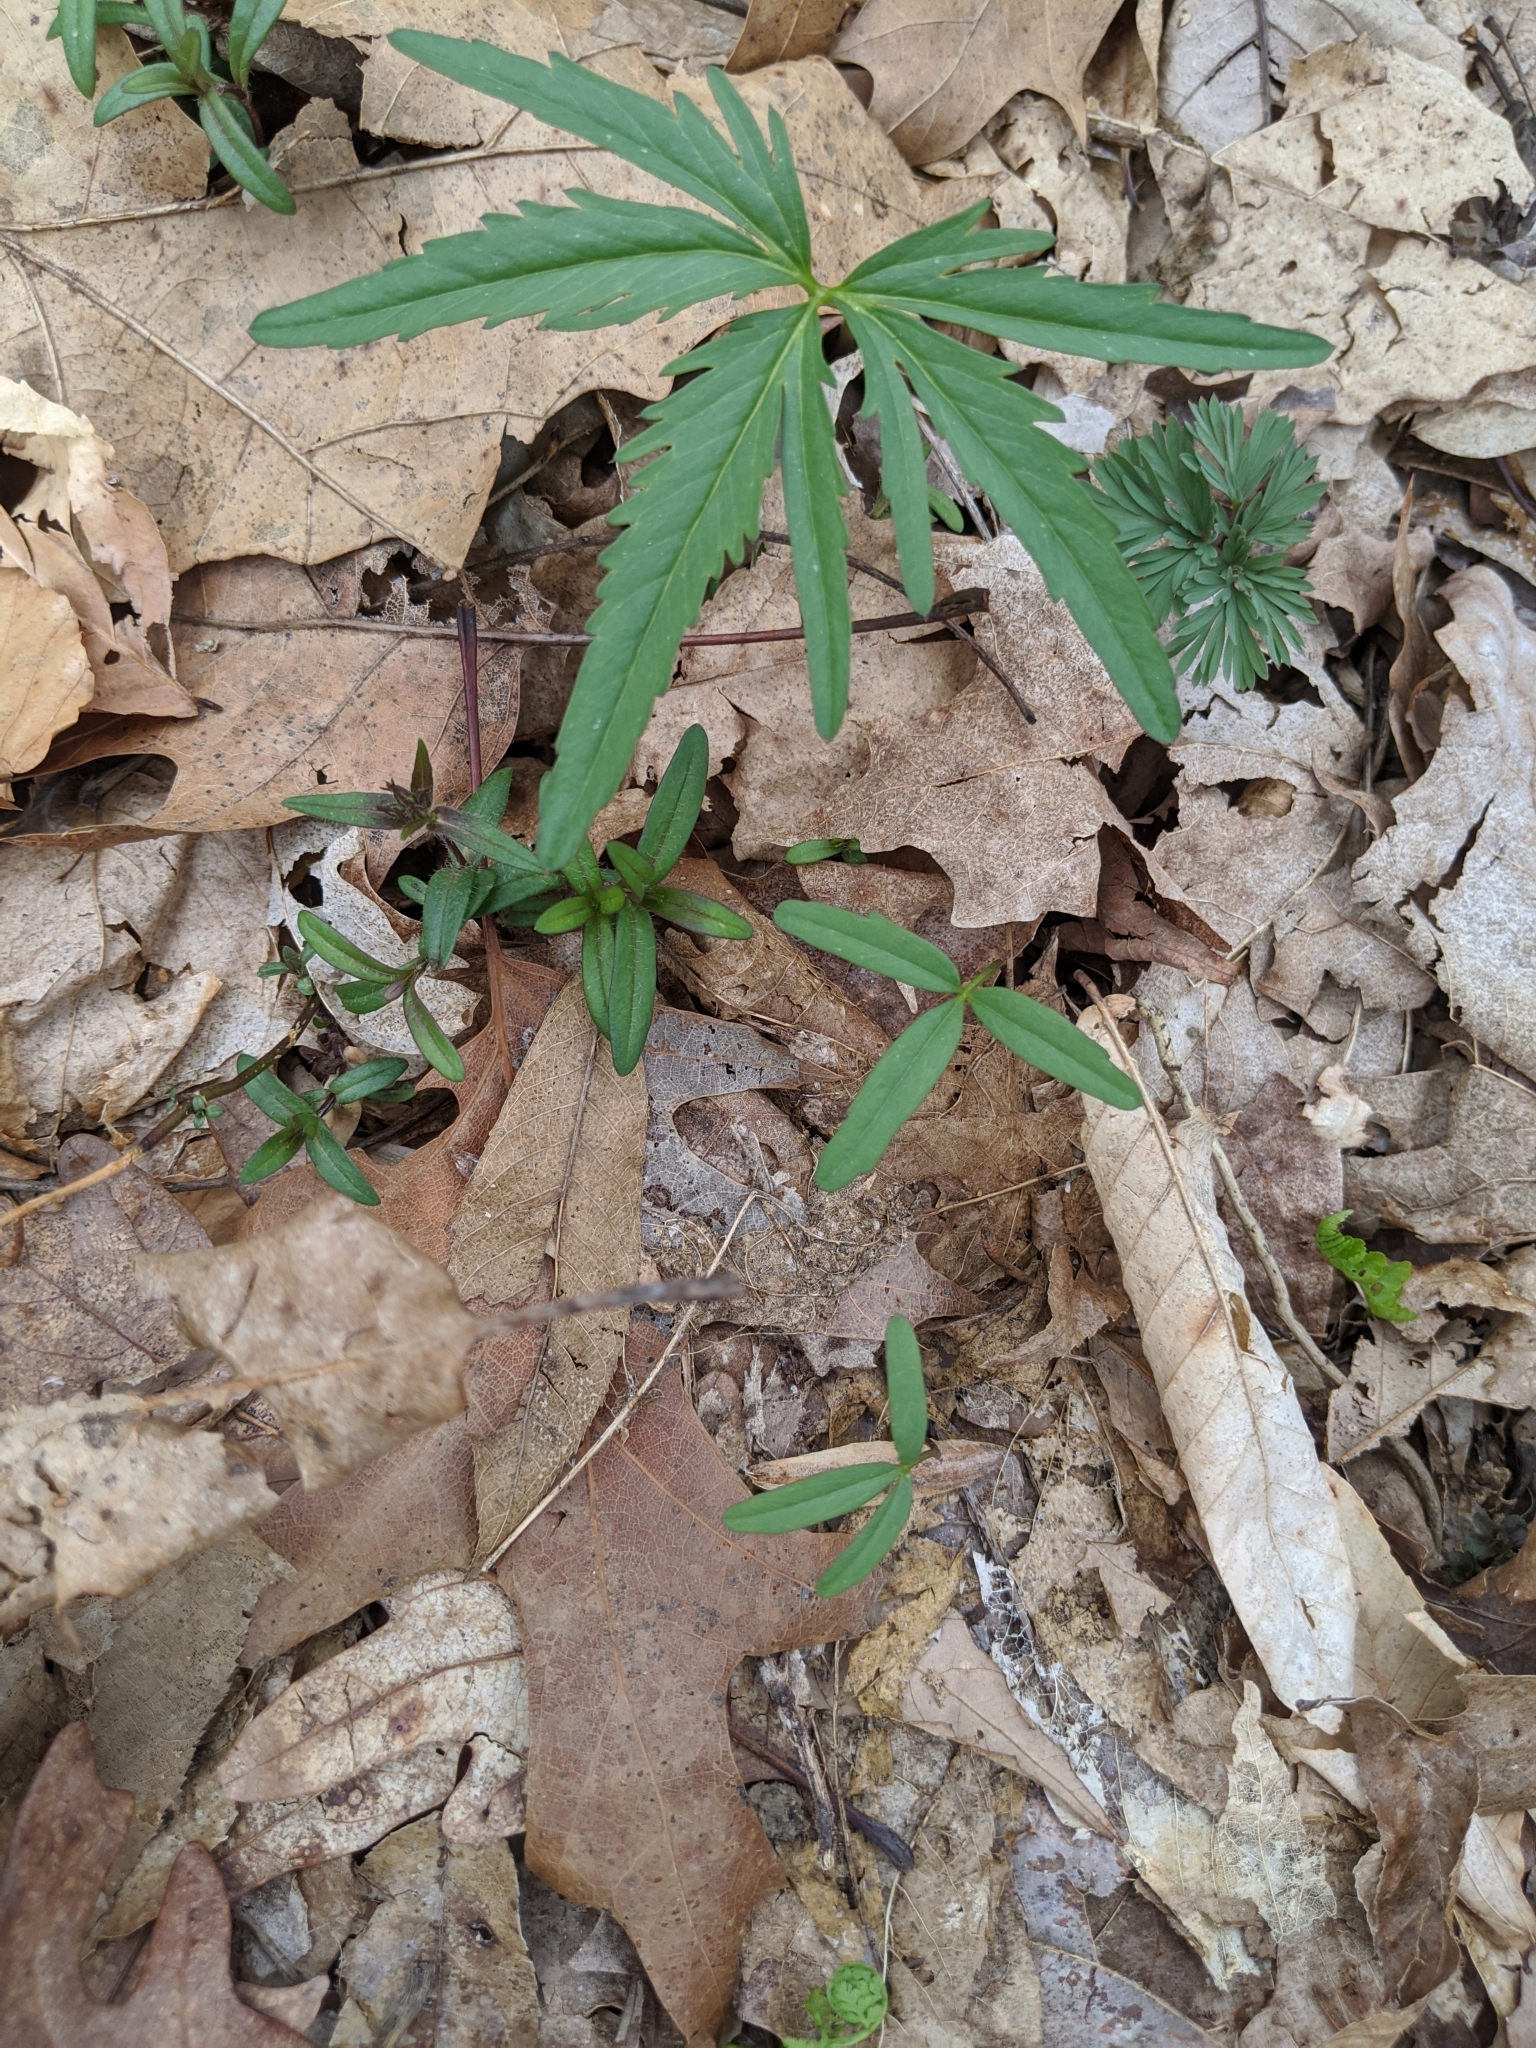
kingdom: Plantae
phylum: Tracheophyta
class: Magnoliopsida
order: Brassicales
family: Brassicaceae
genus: Cardamine
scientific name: Cardamine concatenata
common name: Cut-leaf toothcup
